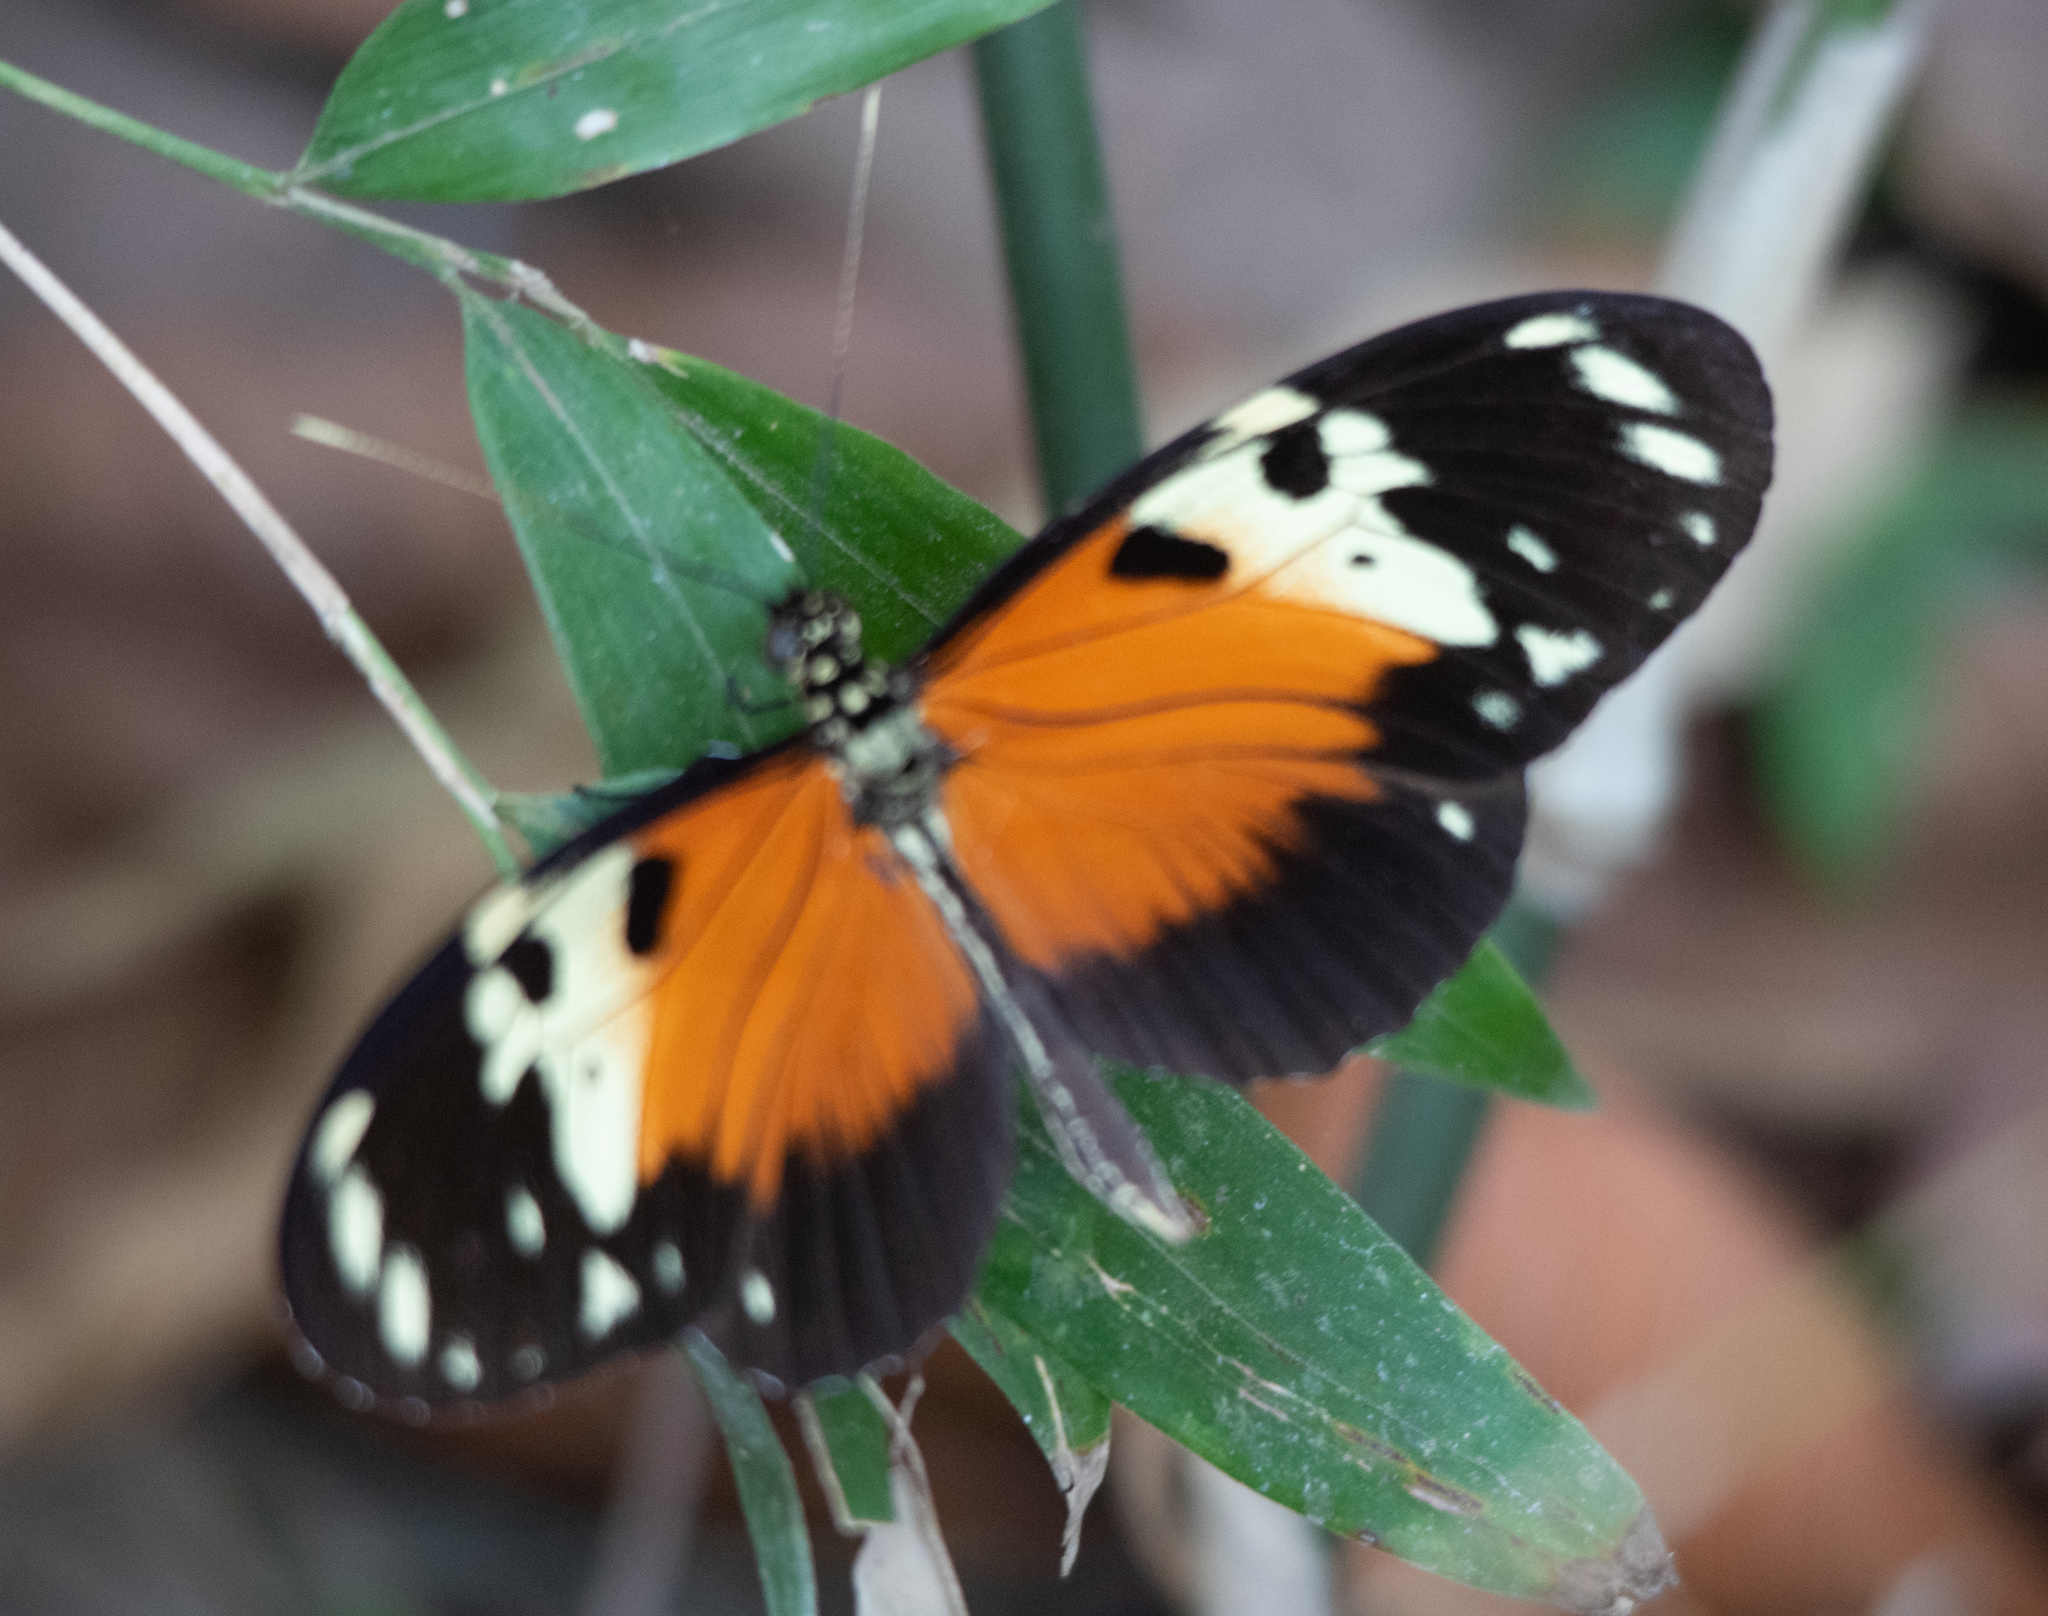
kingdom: Animalia
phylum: Arthropoda
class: Insecta
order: Lepidoptera
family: Nymphalidae
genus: Heliconius
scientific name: Heliconius hecale
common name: Tiger longwing
